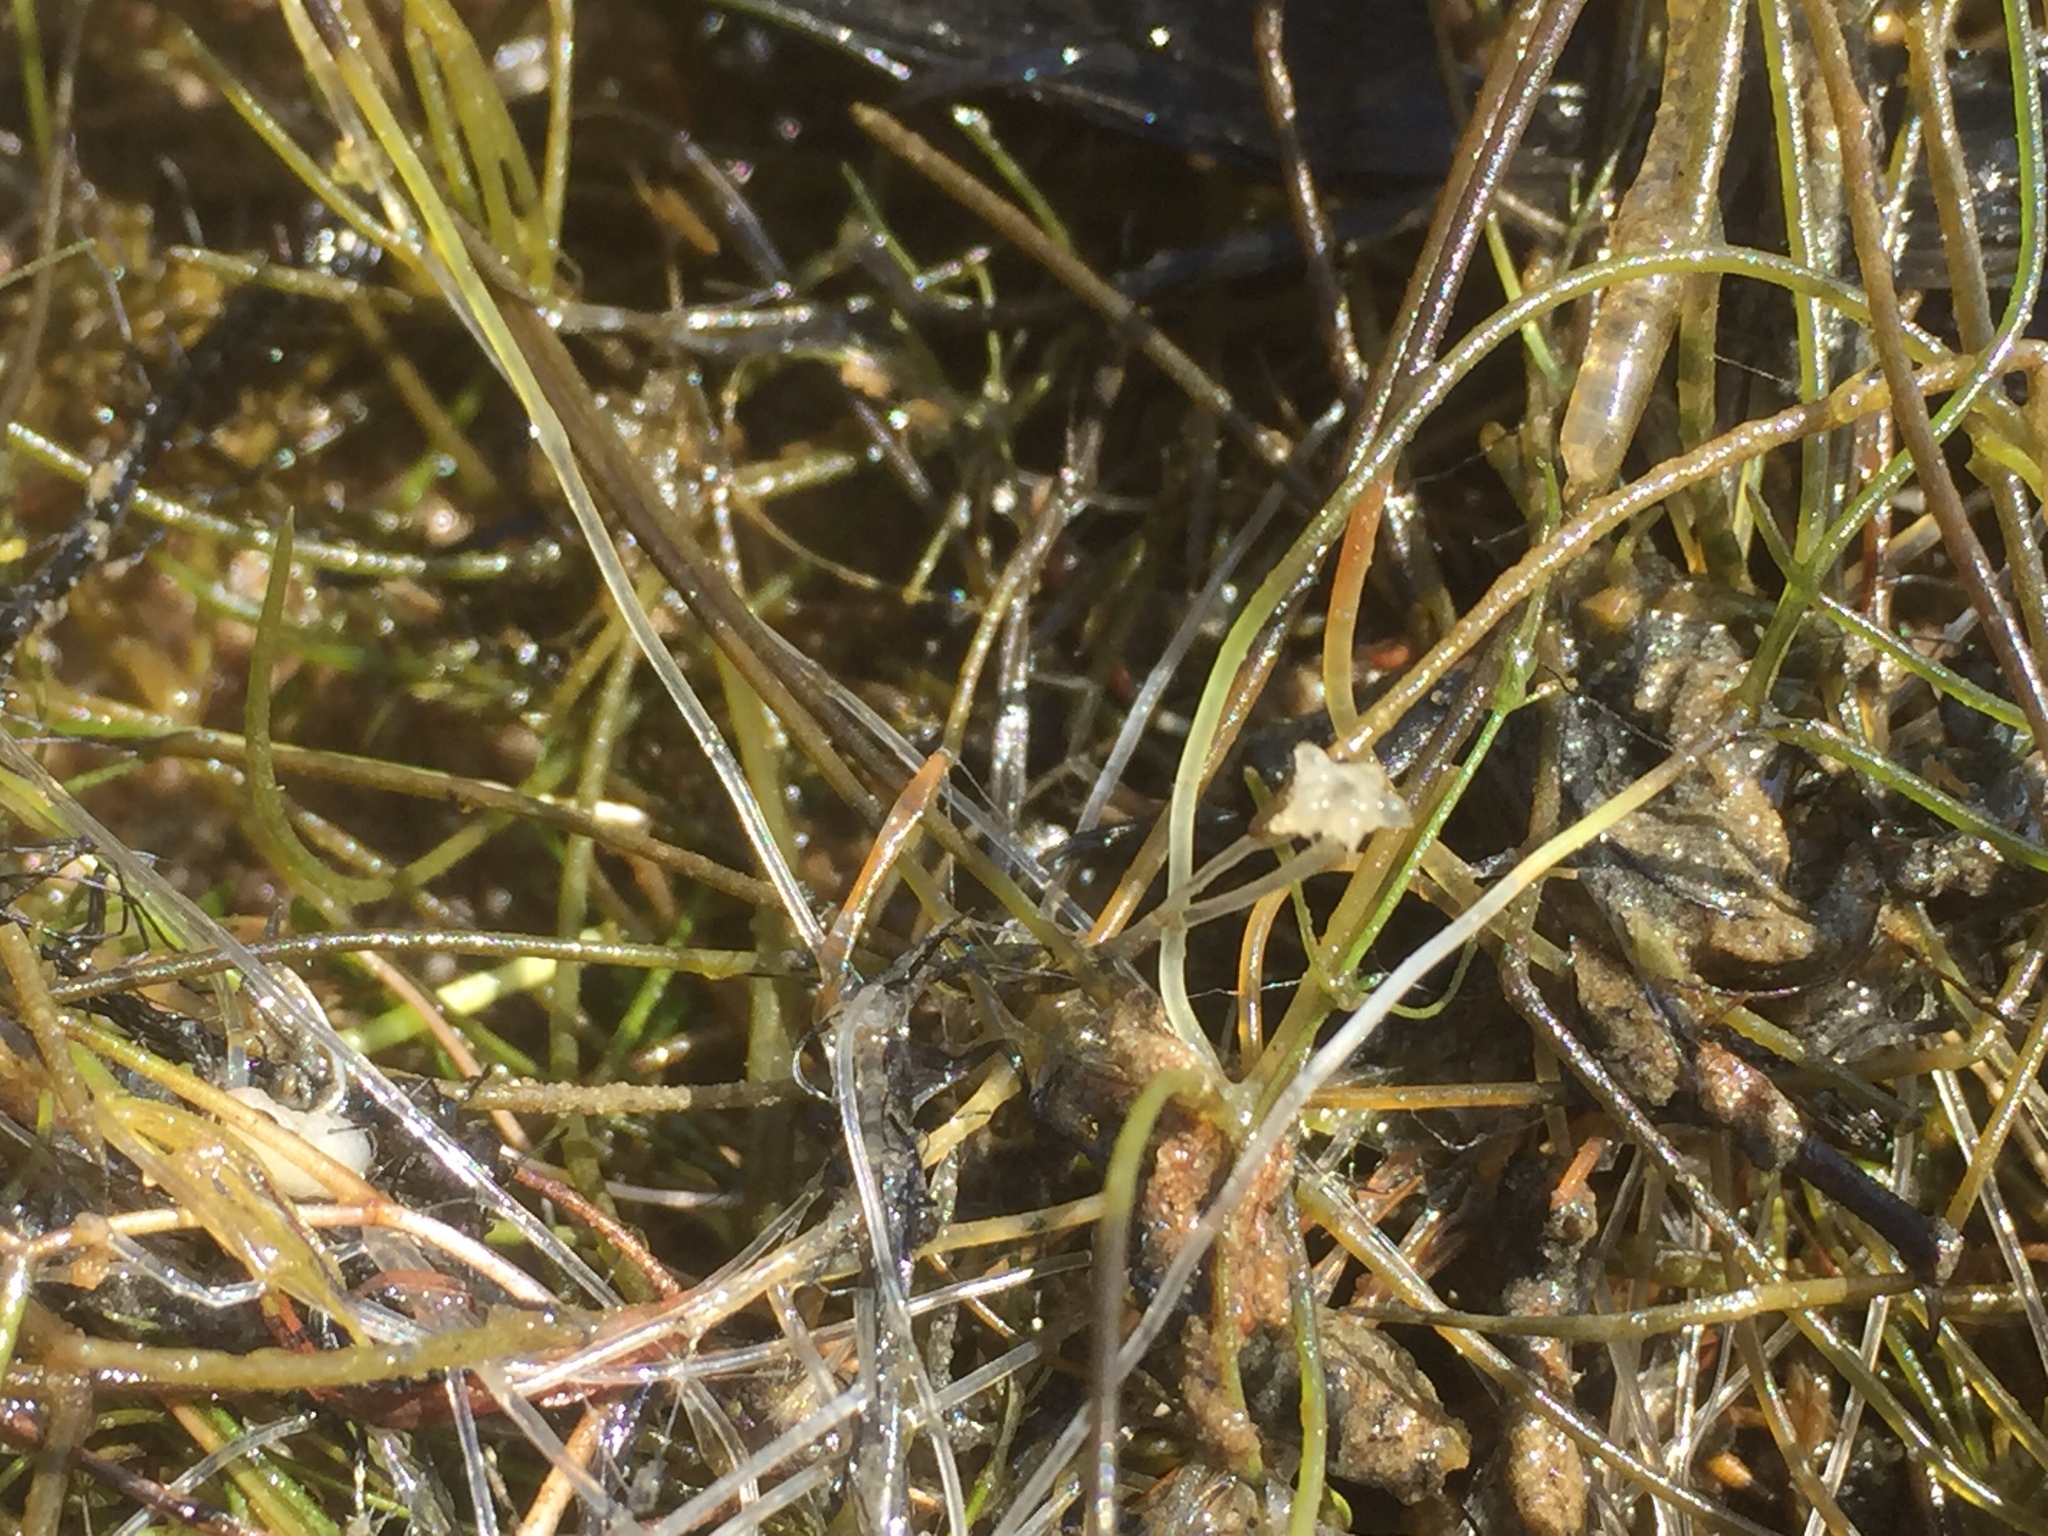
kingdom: Plantae
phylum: Charophyta
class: Charophyceae
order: Charales
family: Characeae
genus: Nitellopsis
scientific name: Nitellopsis obtusa
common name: Starry stonewort
